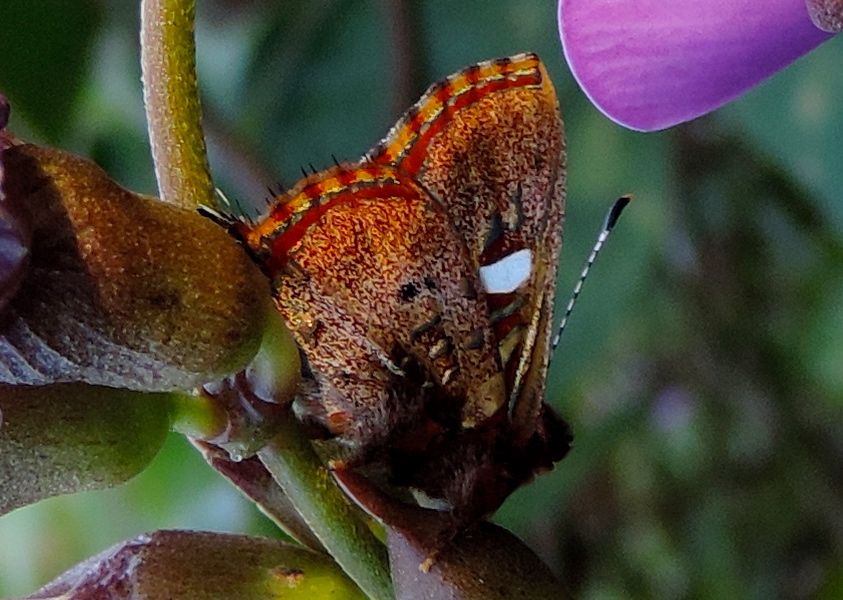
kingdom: Animalia
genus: Anteros
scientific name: Anteros carausius
